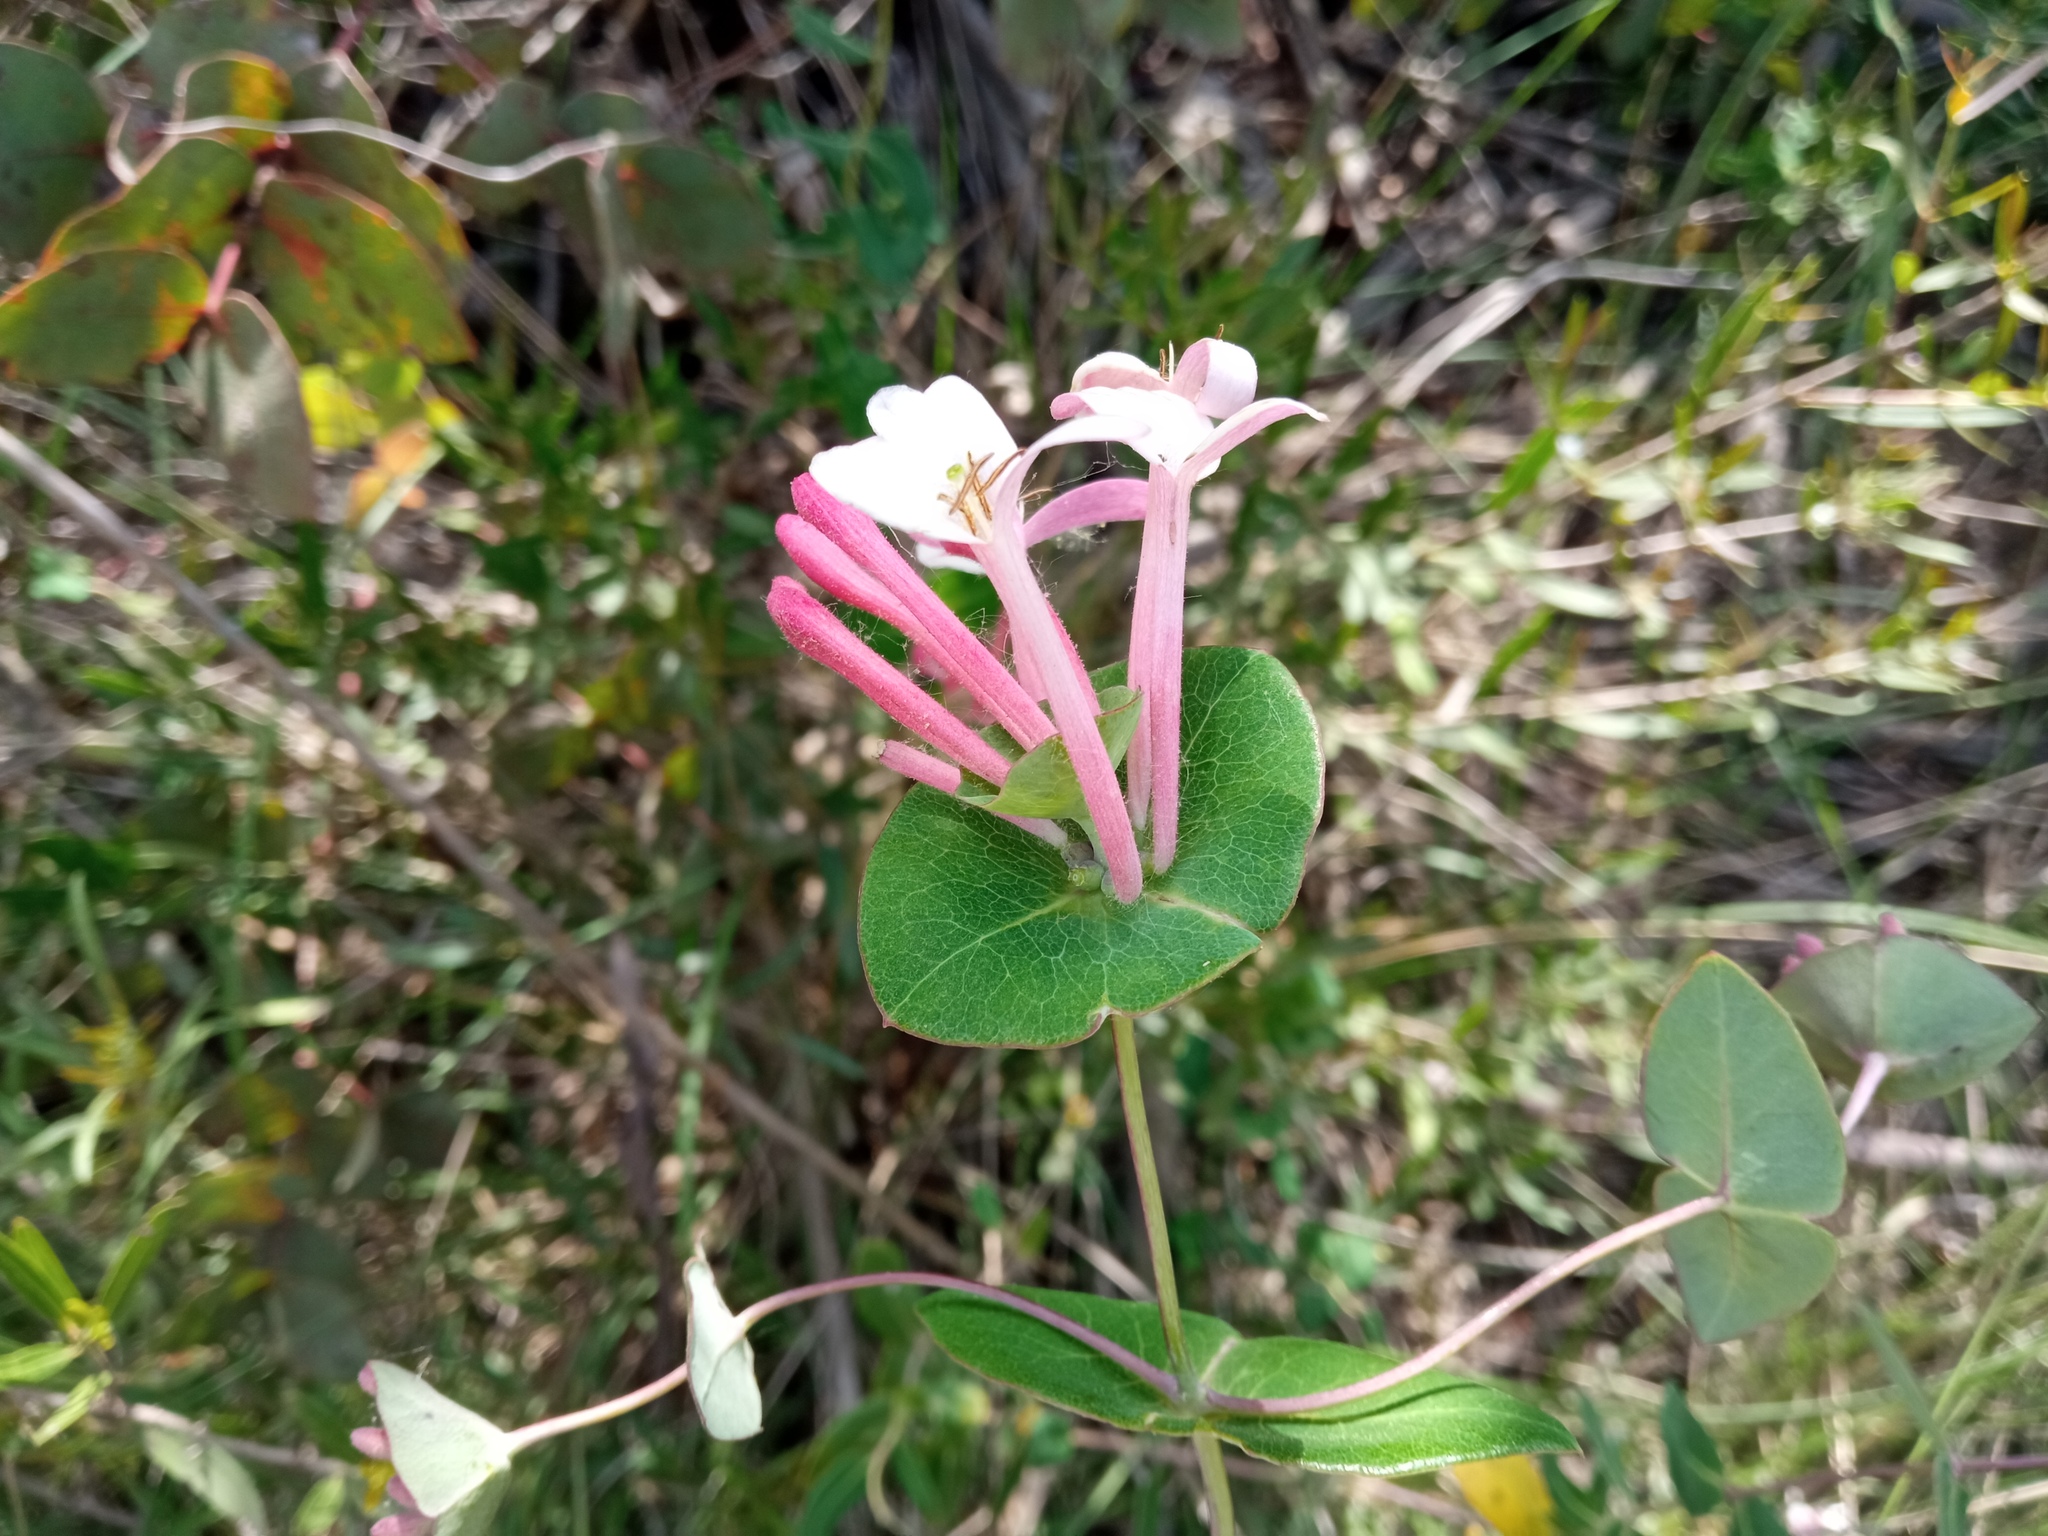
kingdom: Plantae
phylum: Tracheophyta
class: Magnoliopsida
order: Dipsacales
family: Caprifoliaceae
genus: Lonicera
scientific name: Lonicera implexa
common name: Minorca honeysuckle
